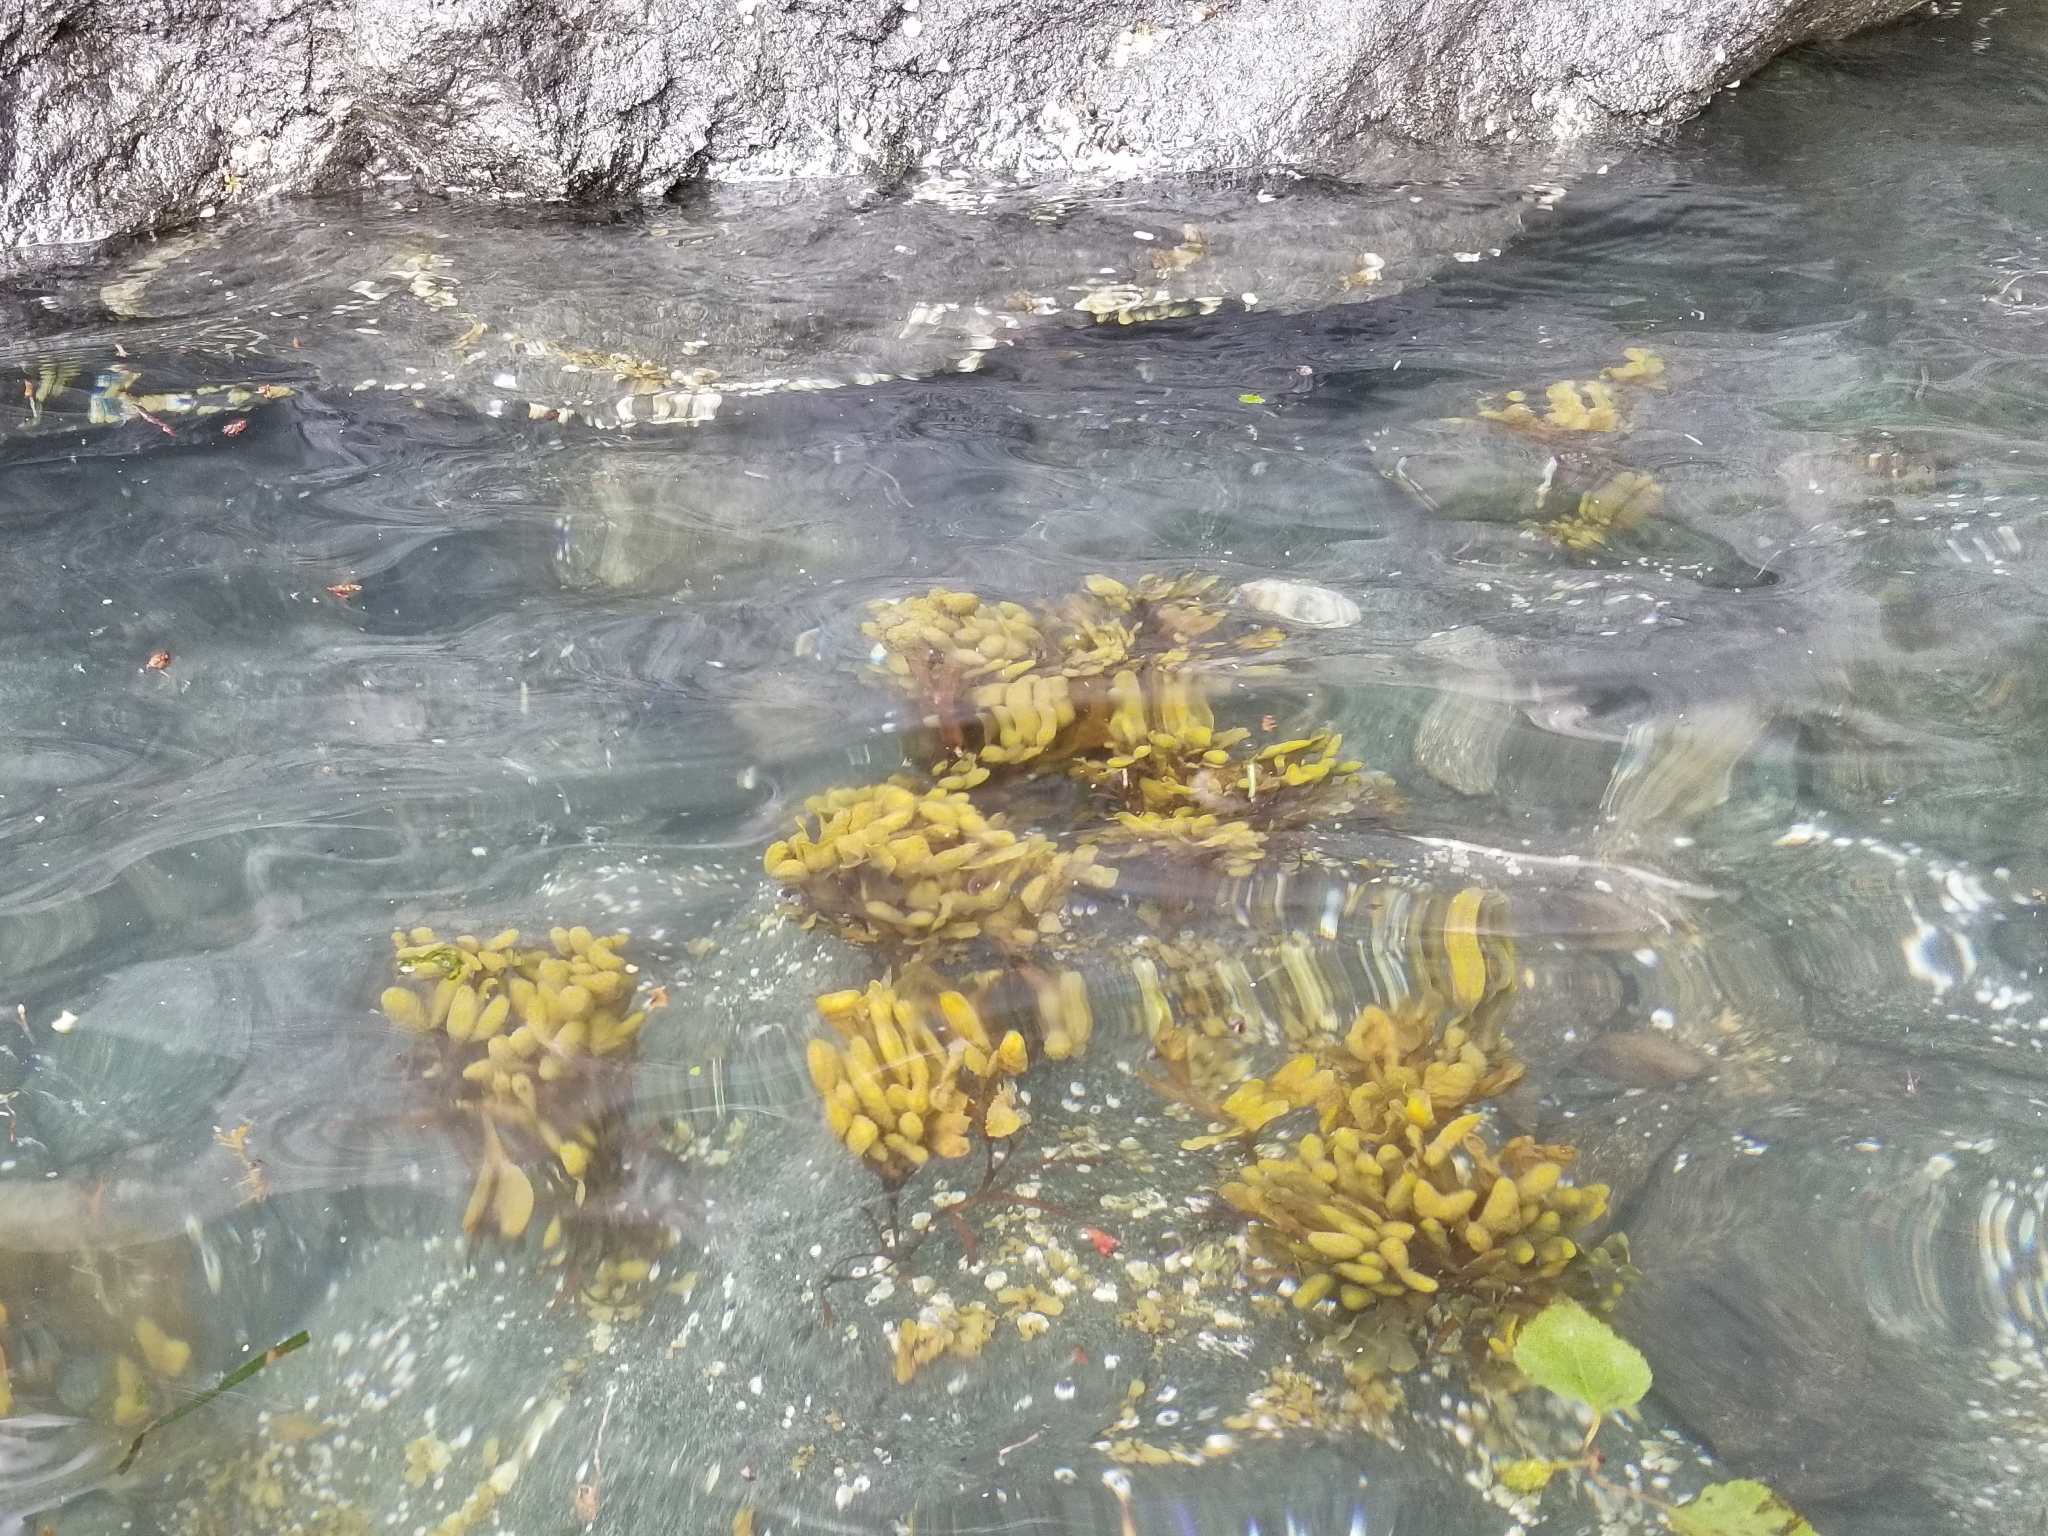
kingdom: Chromista
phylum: Ochrophyta
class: Phaeophyceae
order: Fucales
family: Fucaceae
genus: Fucus
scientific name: Fucus distichus
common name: Rockweed
